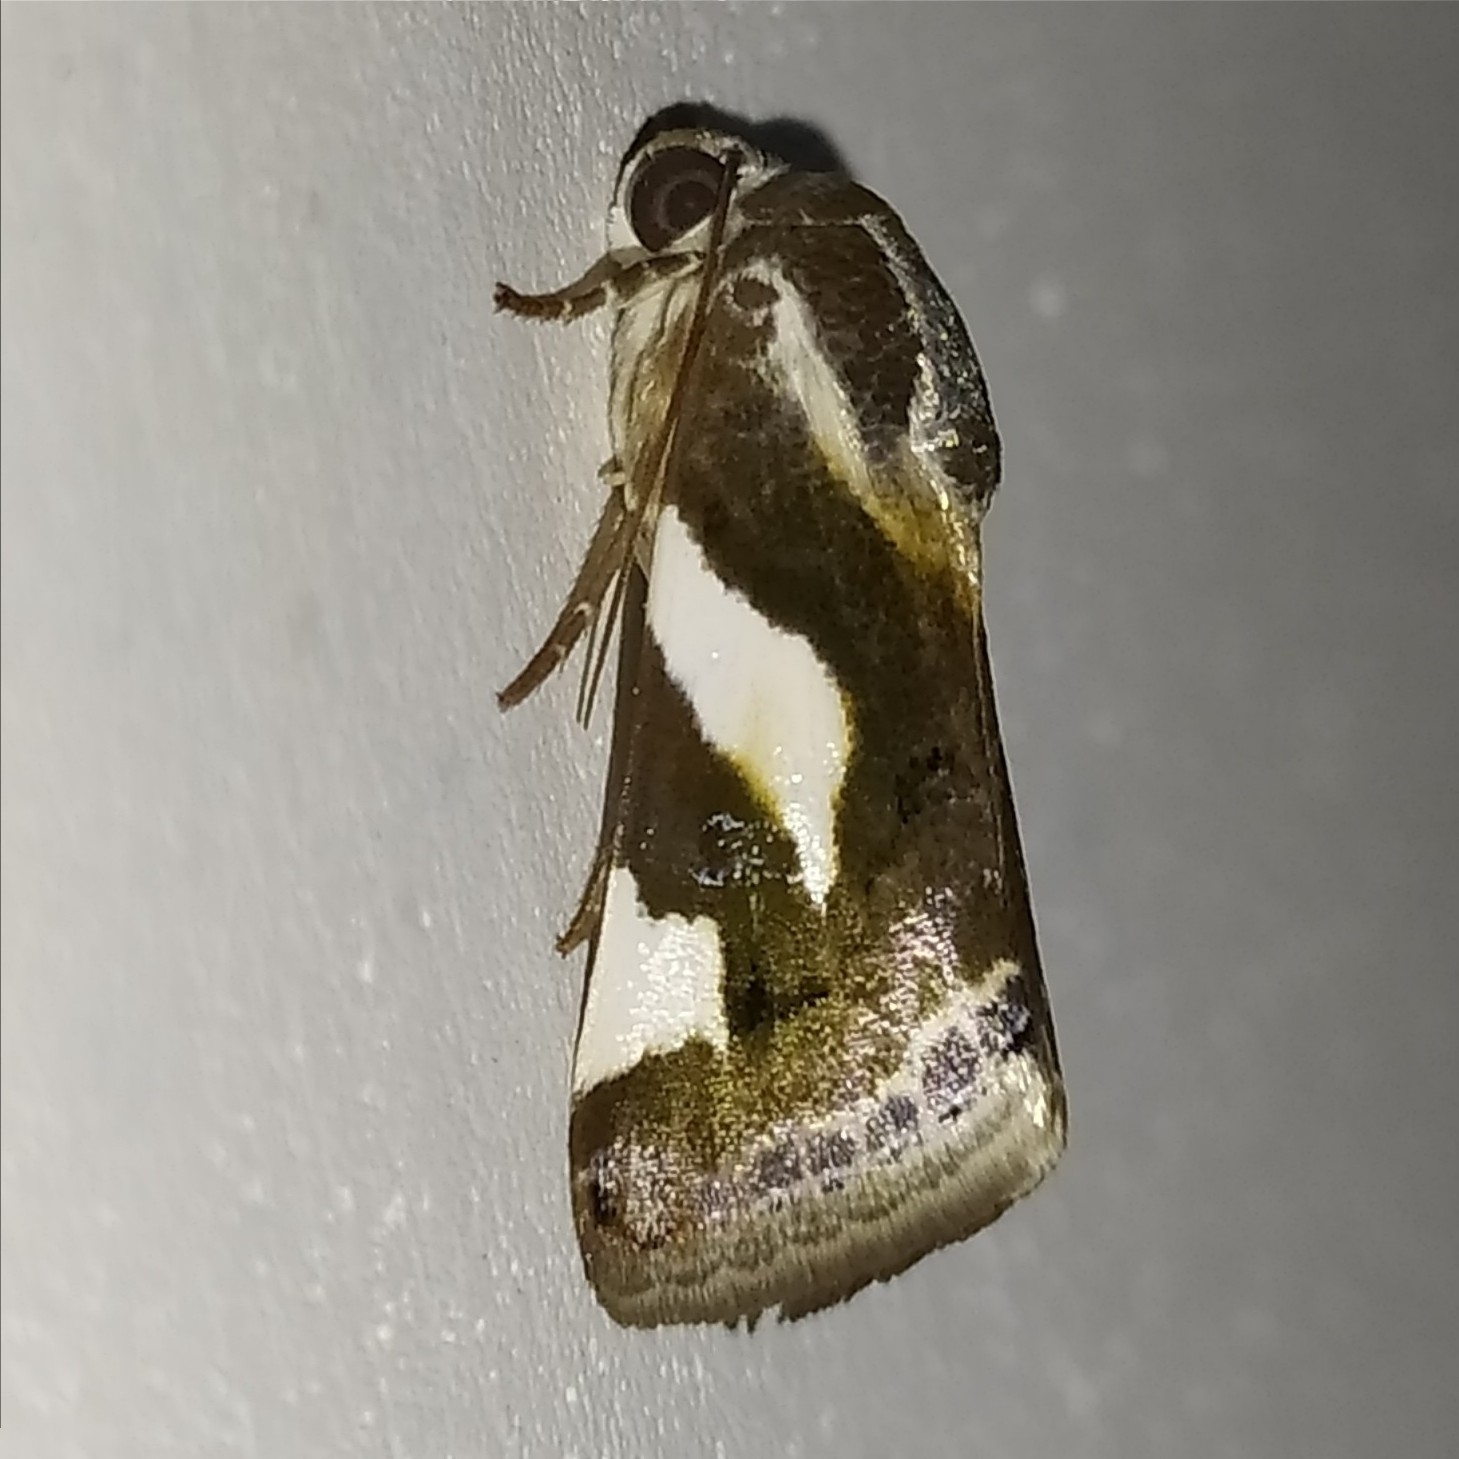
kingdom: Animalia
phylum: Arthropoda
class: Insecta
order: Lepidoptera
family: Noctuidae
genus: Acontia
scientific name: Acontia catenula
